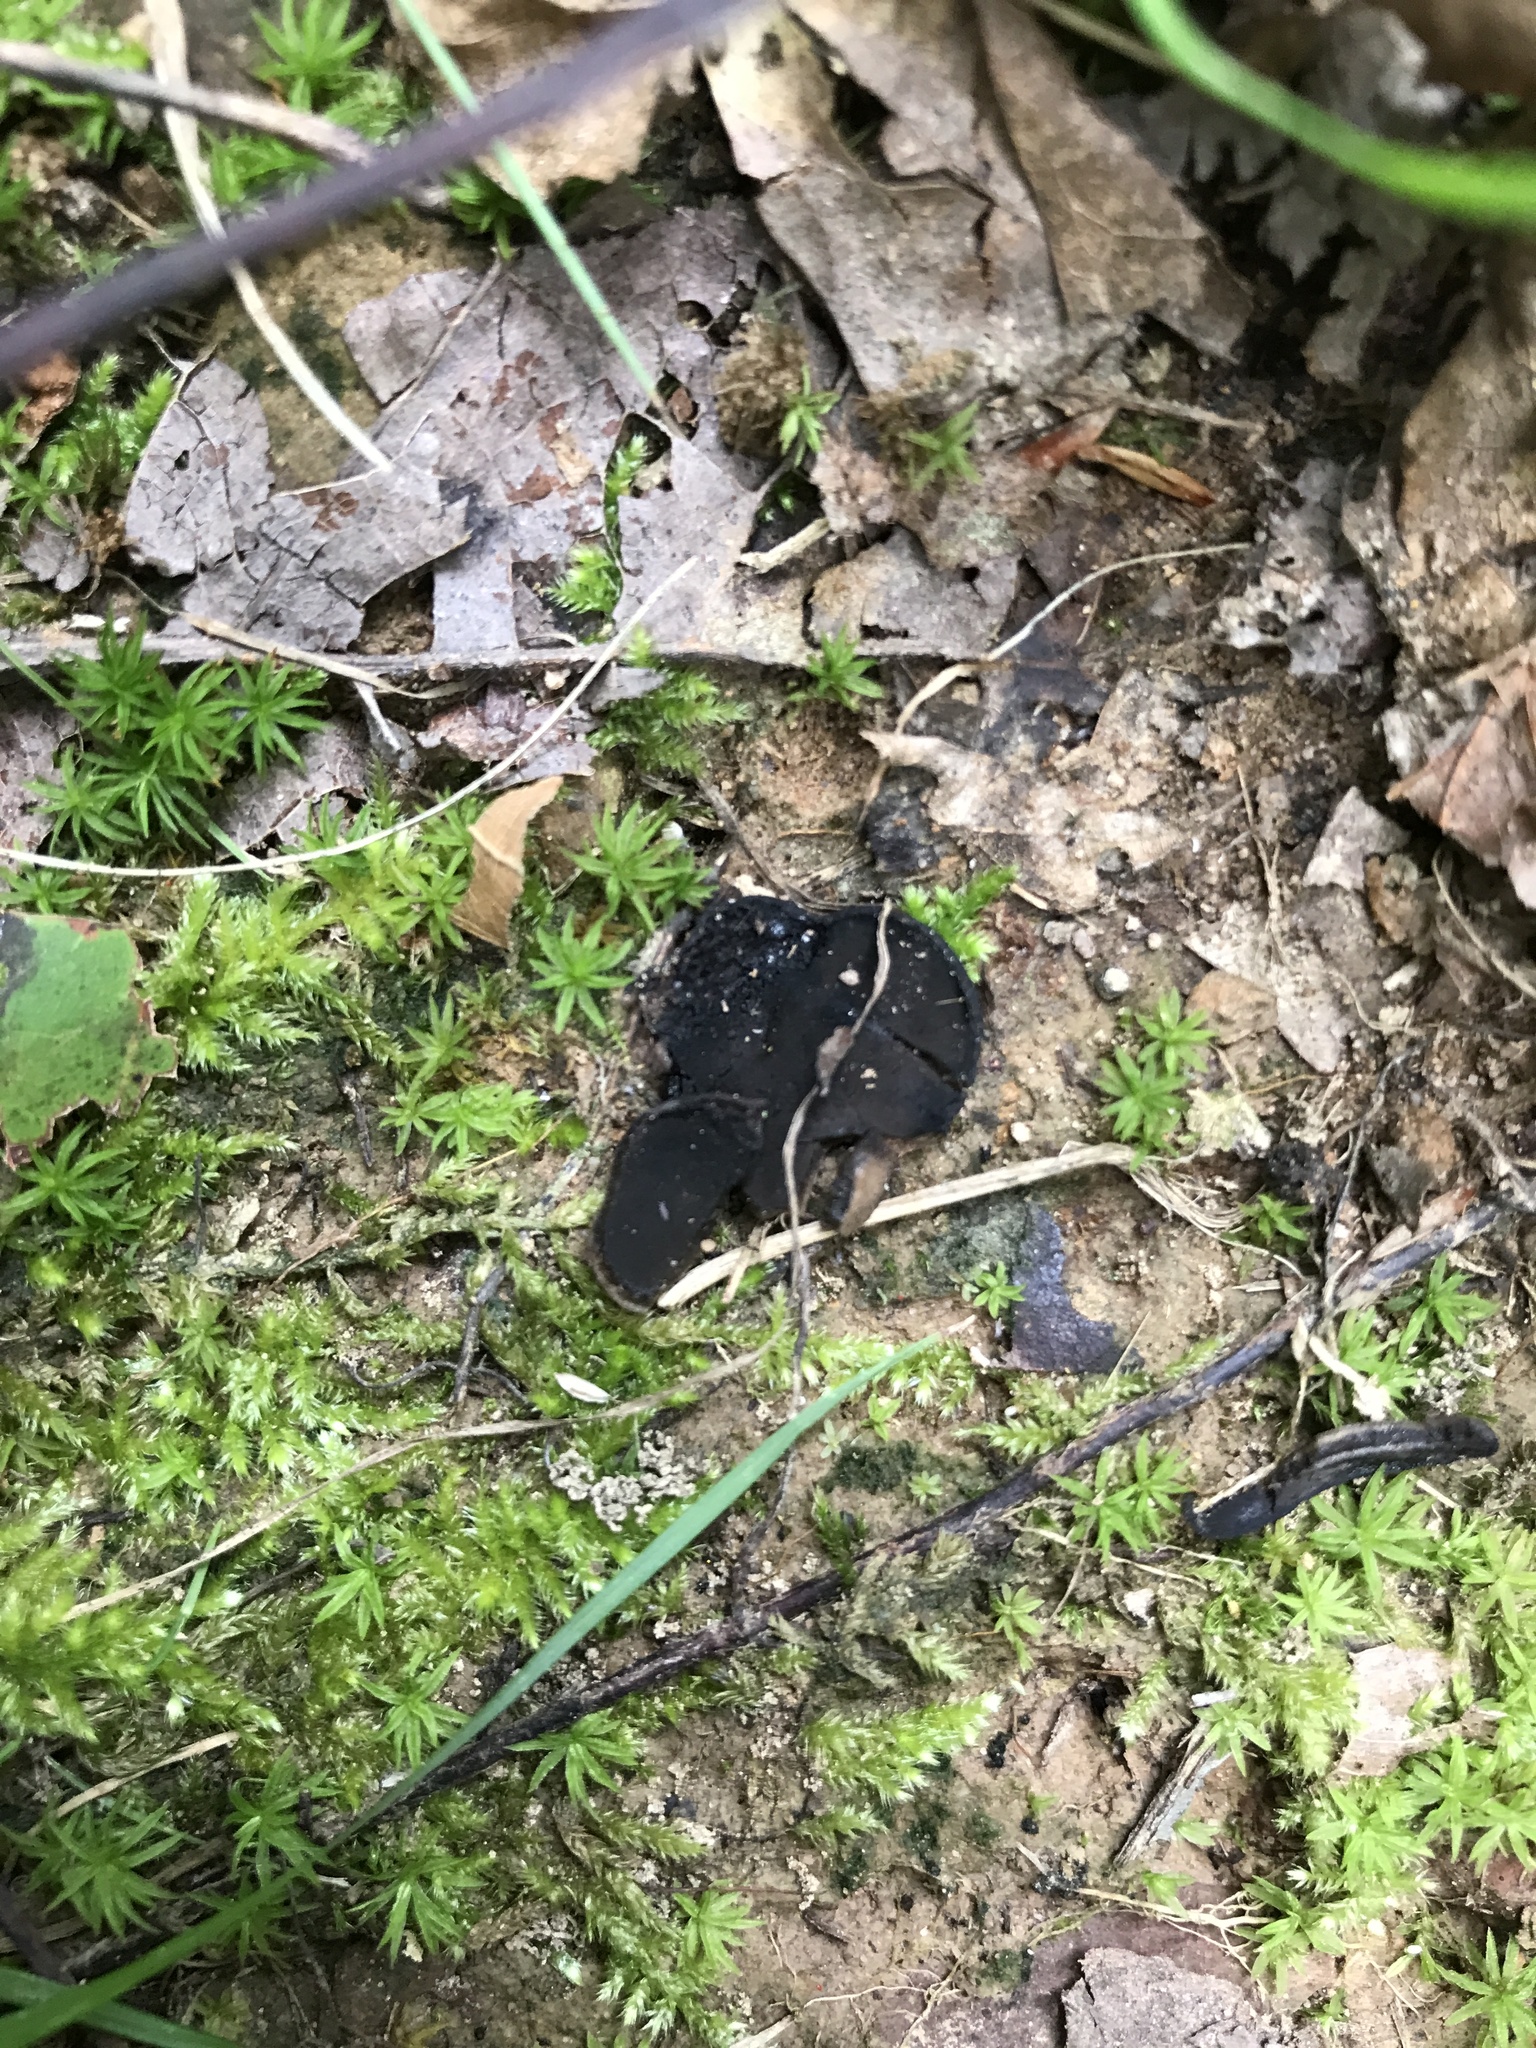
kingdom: Fungi
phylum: Ascomycota
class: Pezizomycetes
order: Pezizales
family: Sarcosomataceae
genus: Pseudoplectania
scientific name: Pseudoplectania nigrella
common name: Ebony cup
